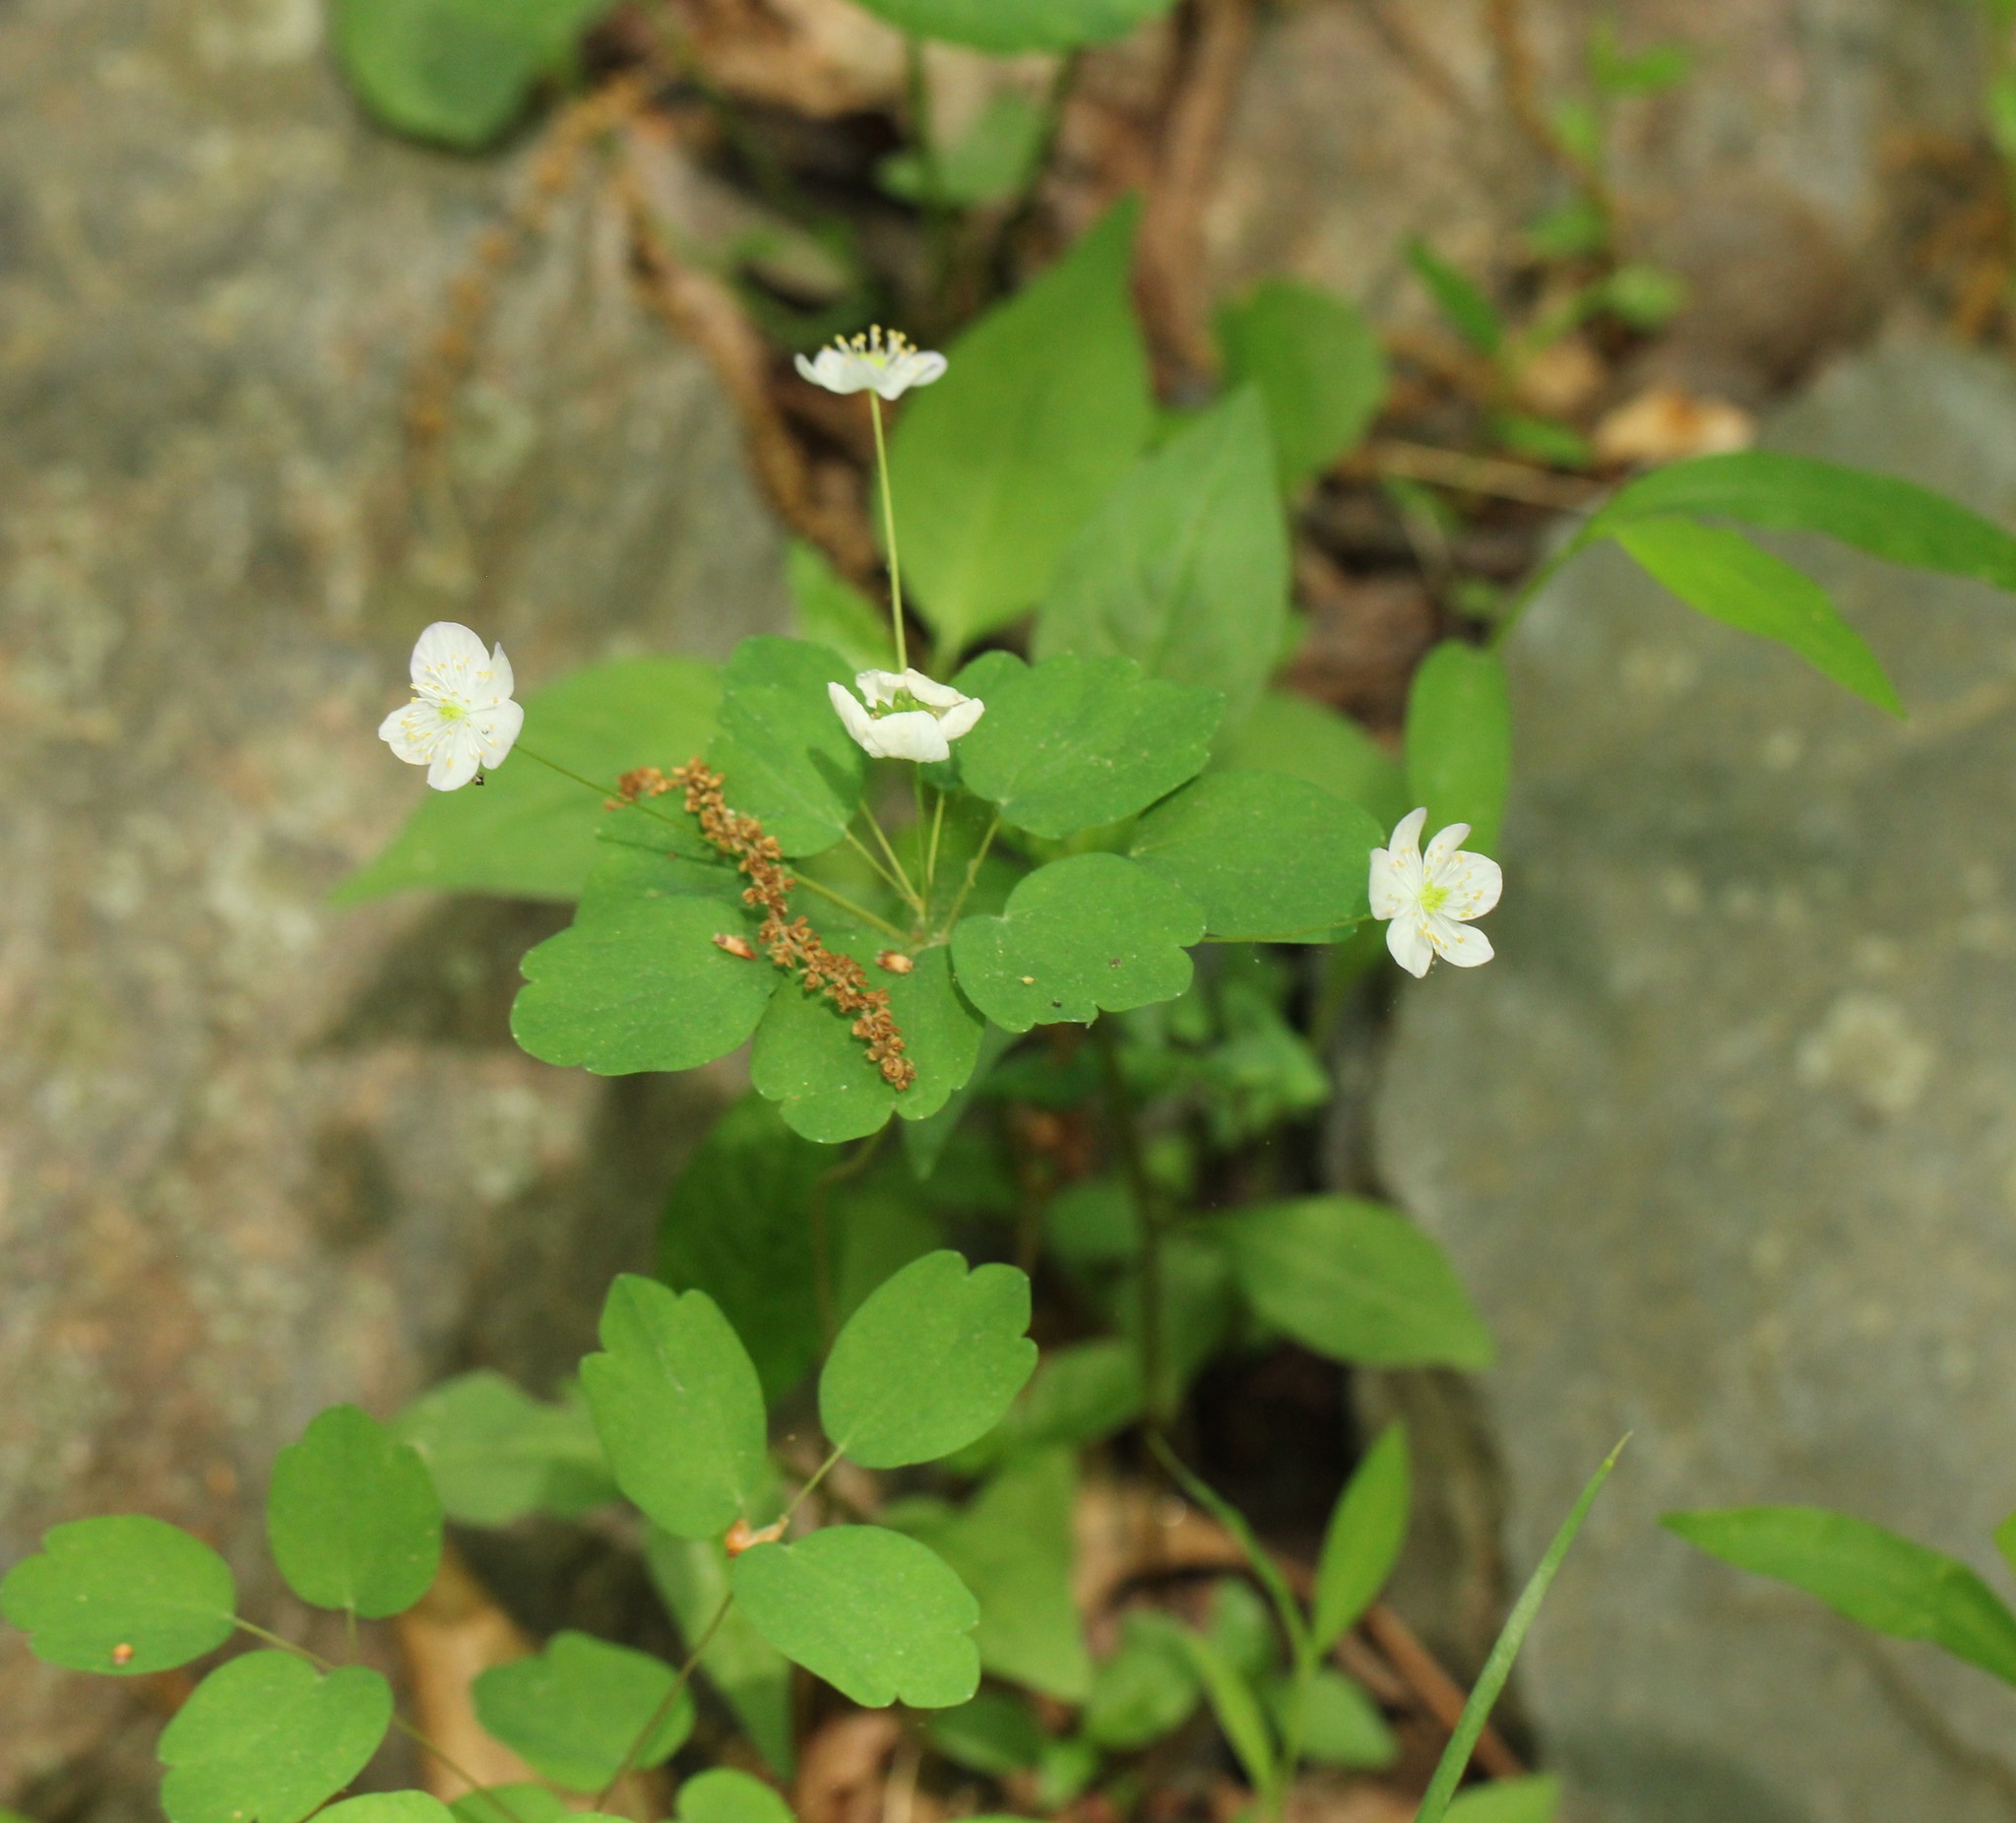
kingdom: Plantae
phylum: Tracheophyta
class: Magnoliopsida
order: Ranunculales
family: Ranunculaceae
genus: Thalictrum
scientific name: Thalictrum thalictroides
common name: Rue-anemone
